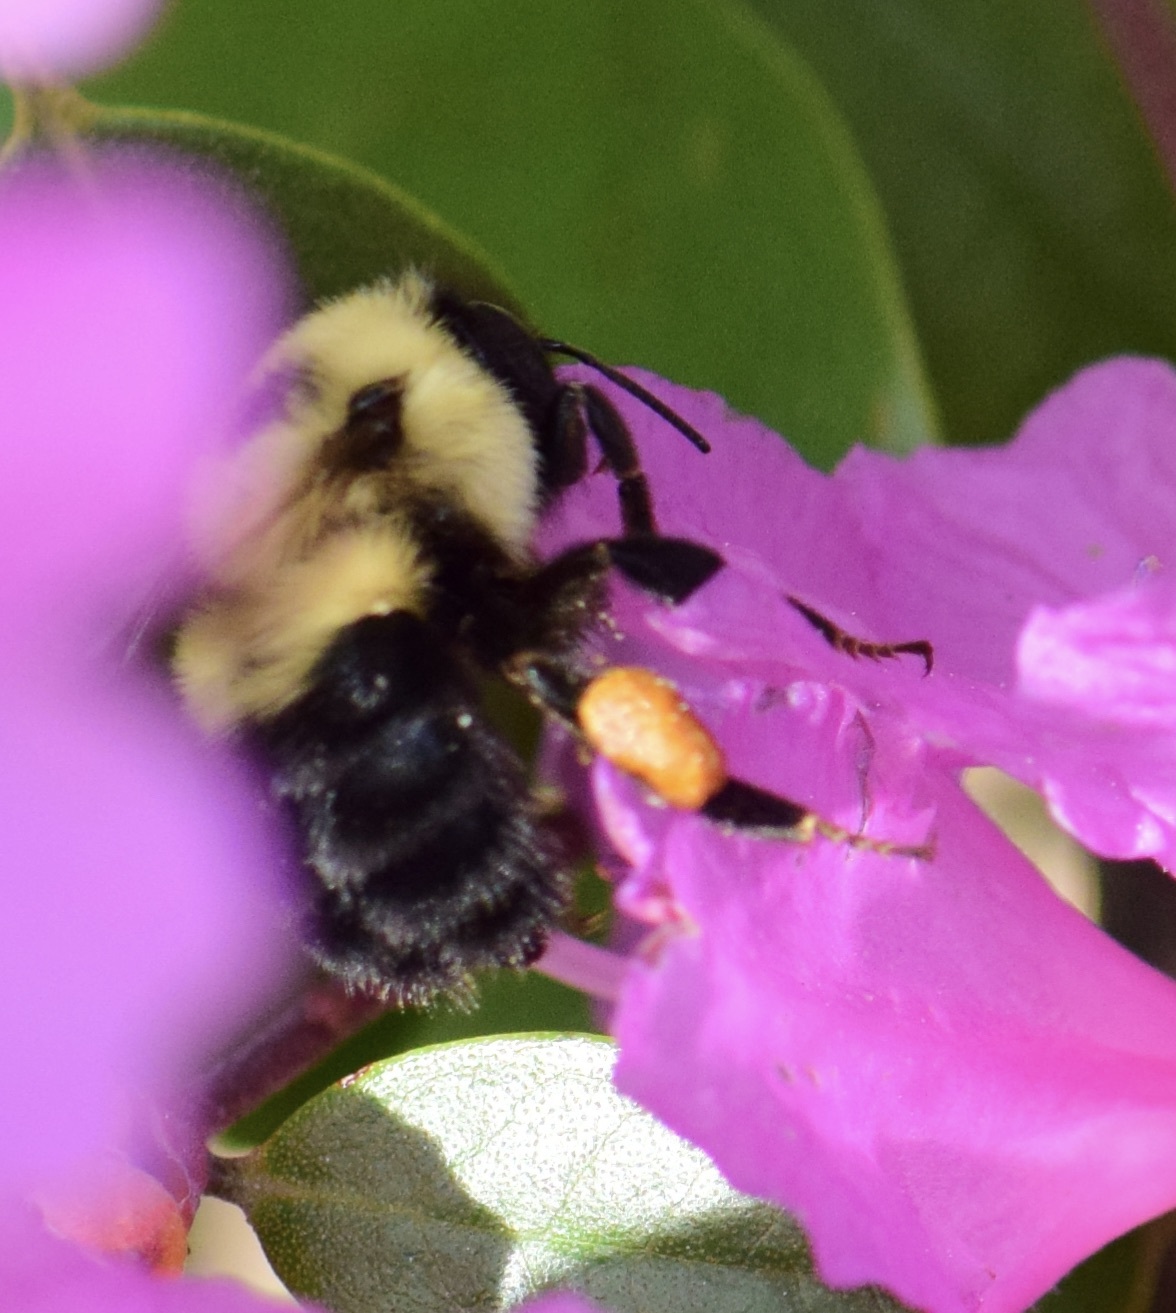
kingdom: Animalia
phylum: Arthropoda
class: Insecta
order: Hymenoptera
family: Apidae
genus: Bombus
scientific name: Bombus bimaculatus
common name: Two-spotted bumble bee
